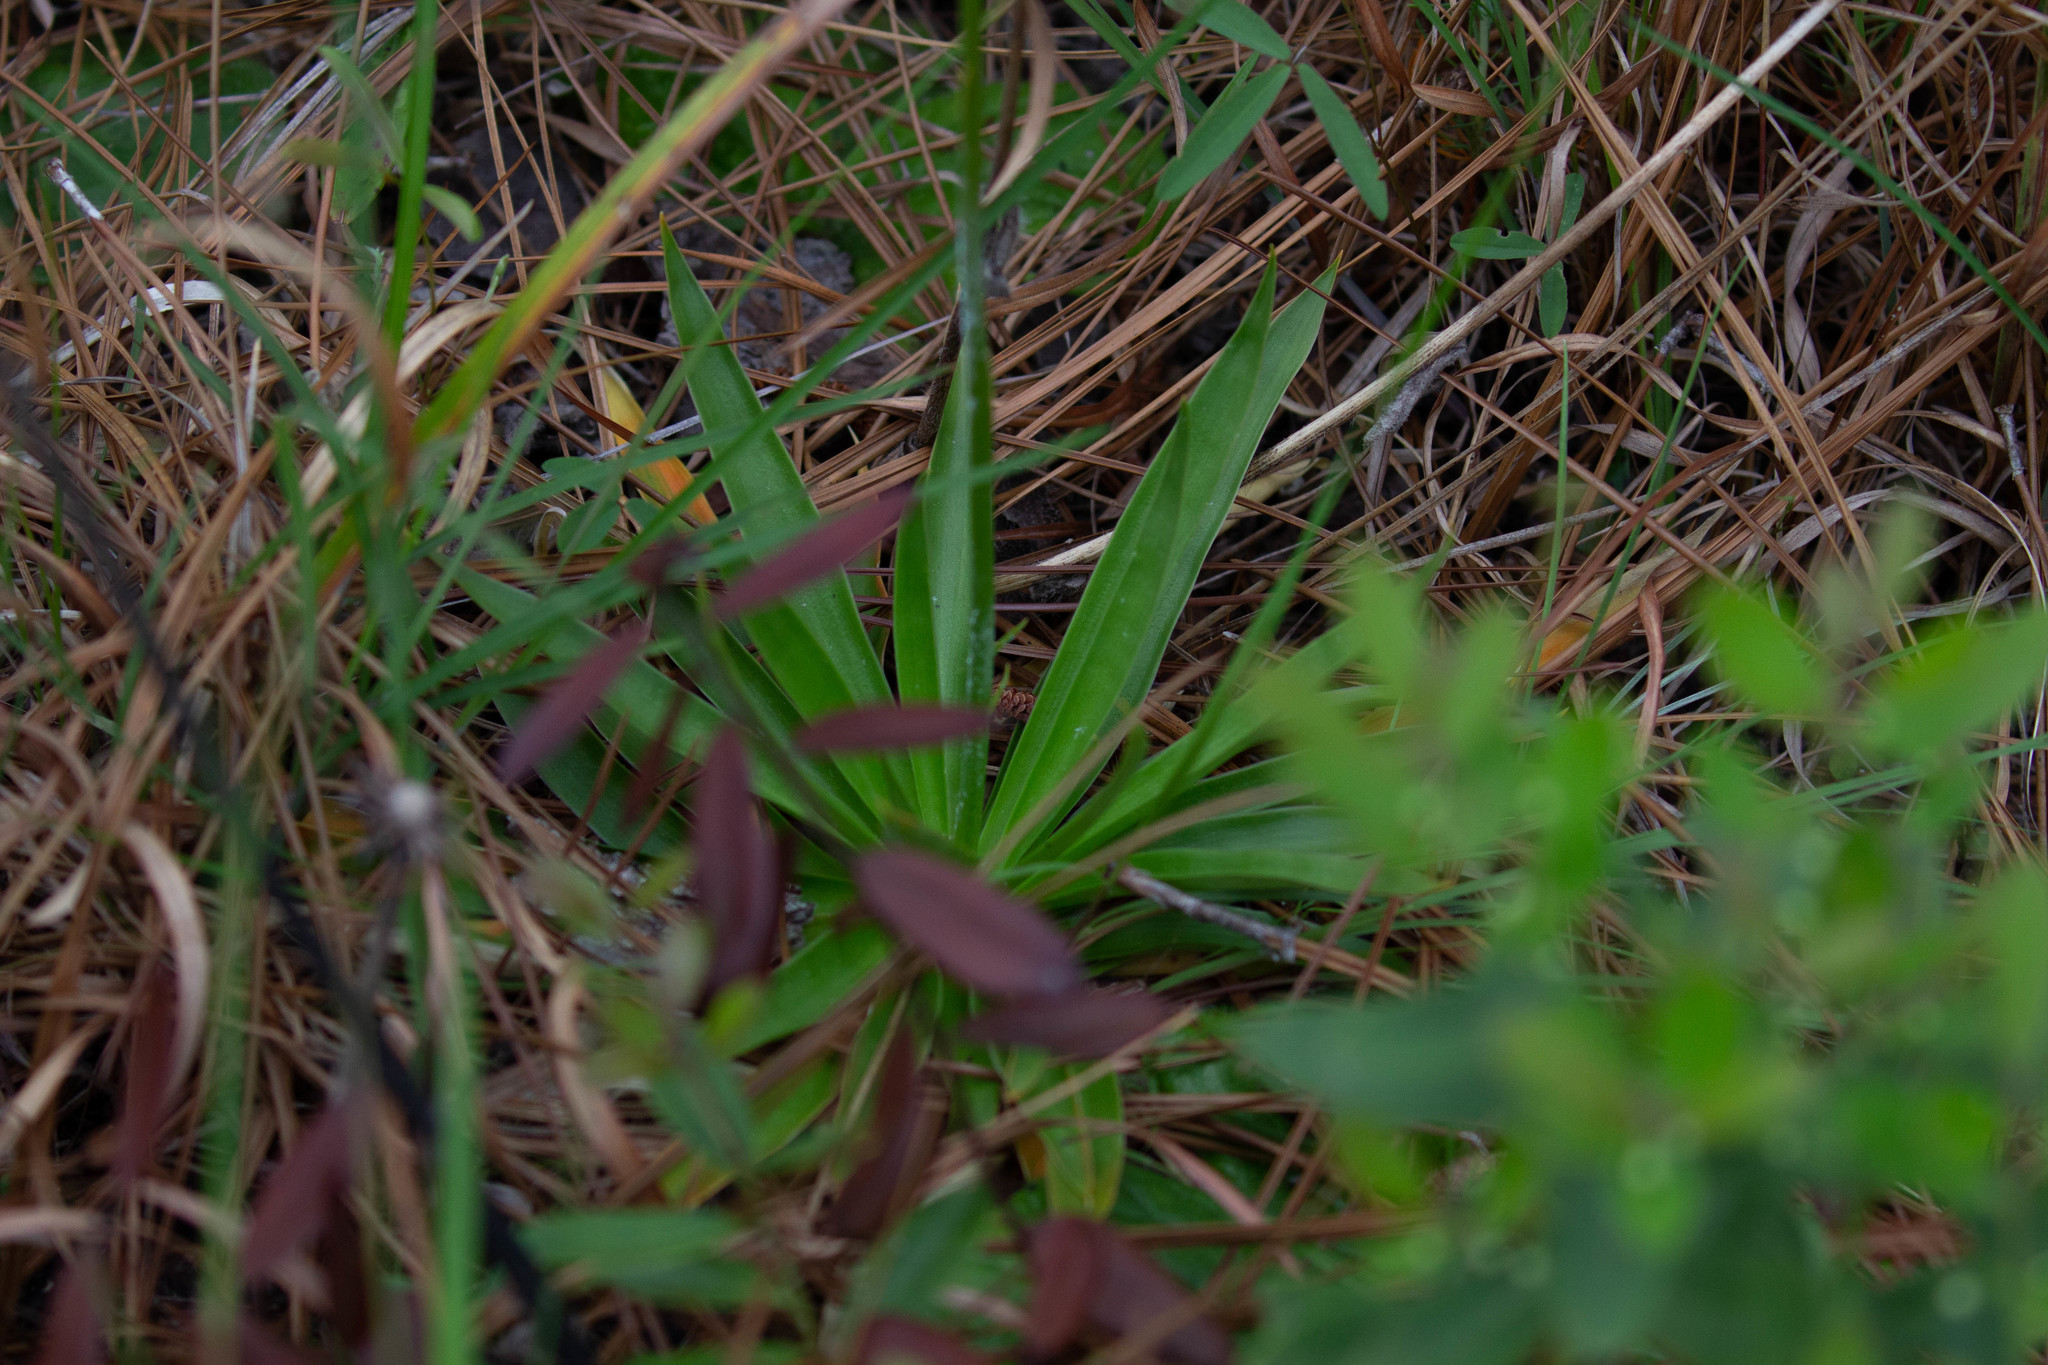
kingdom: Plantae
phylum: Tracheophyta
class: Liliopsida
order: Dioscoreales
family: Nartheciaceae
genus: Aletris
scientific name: Aletris farinosa
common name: Colicroot
